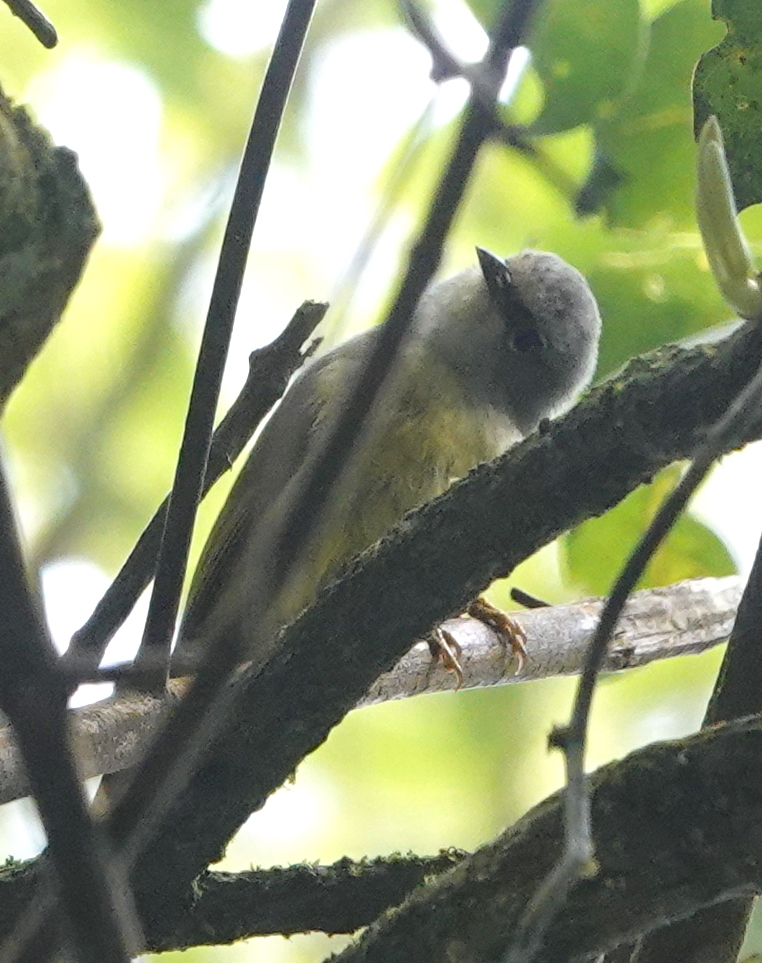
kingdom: Animalia
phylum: Chordata
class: Aves
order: Passeriformes
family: Zosteropidae
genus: Lophozosterops
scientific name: Lophozosterops javanicus
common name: Grey-throated ibon
